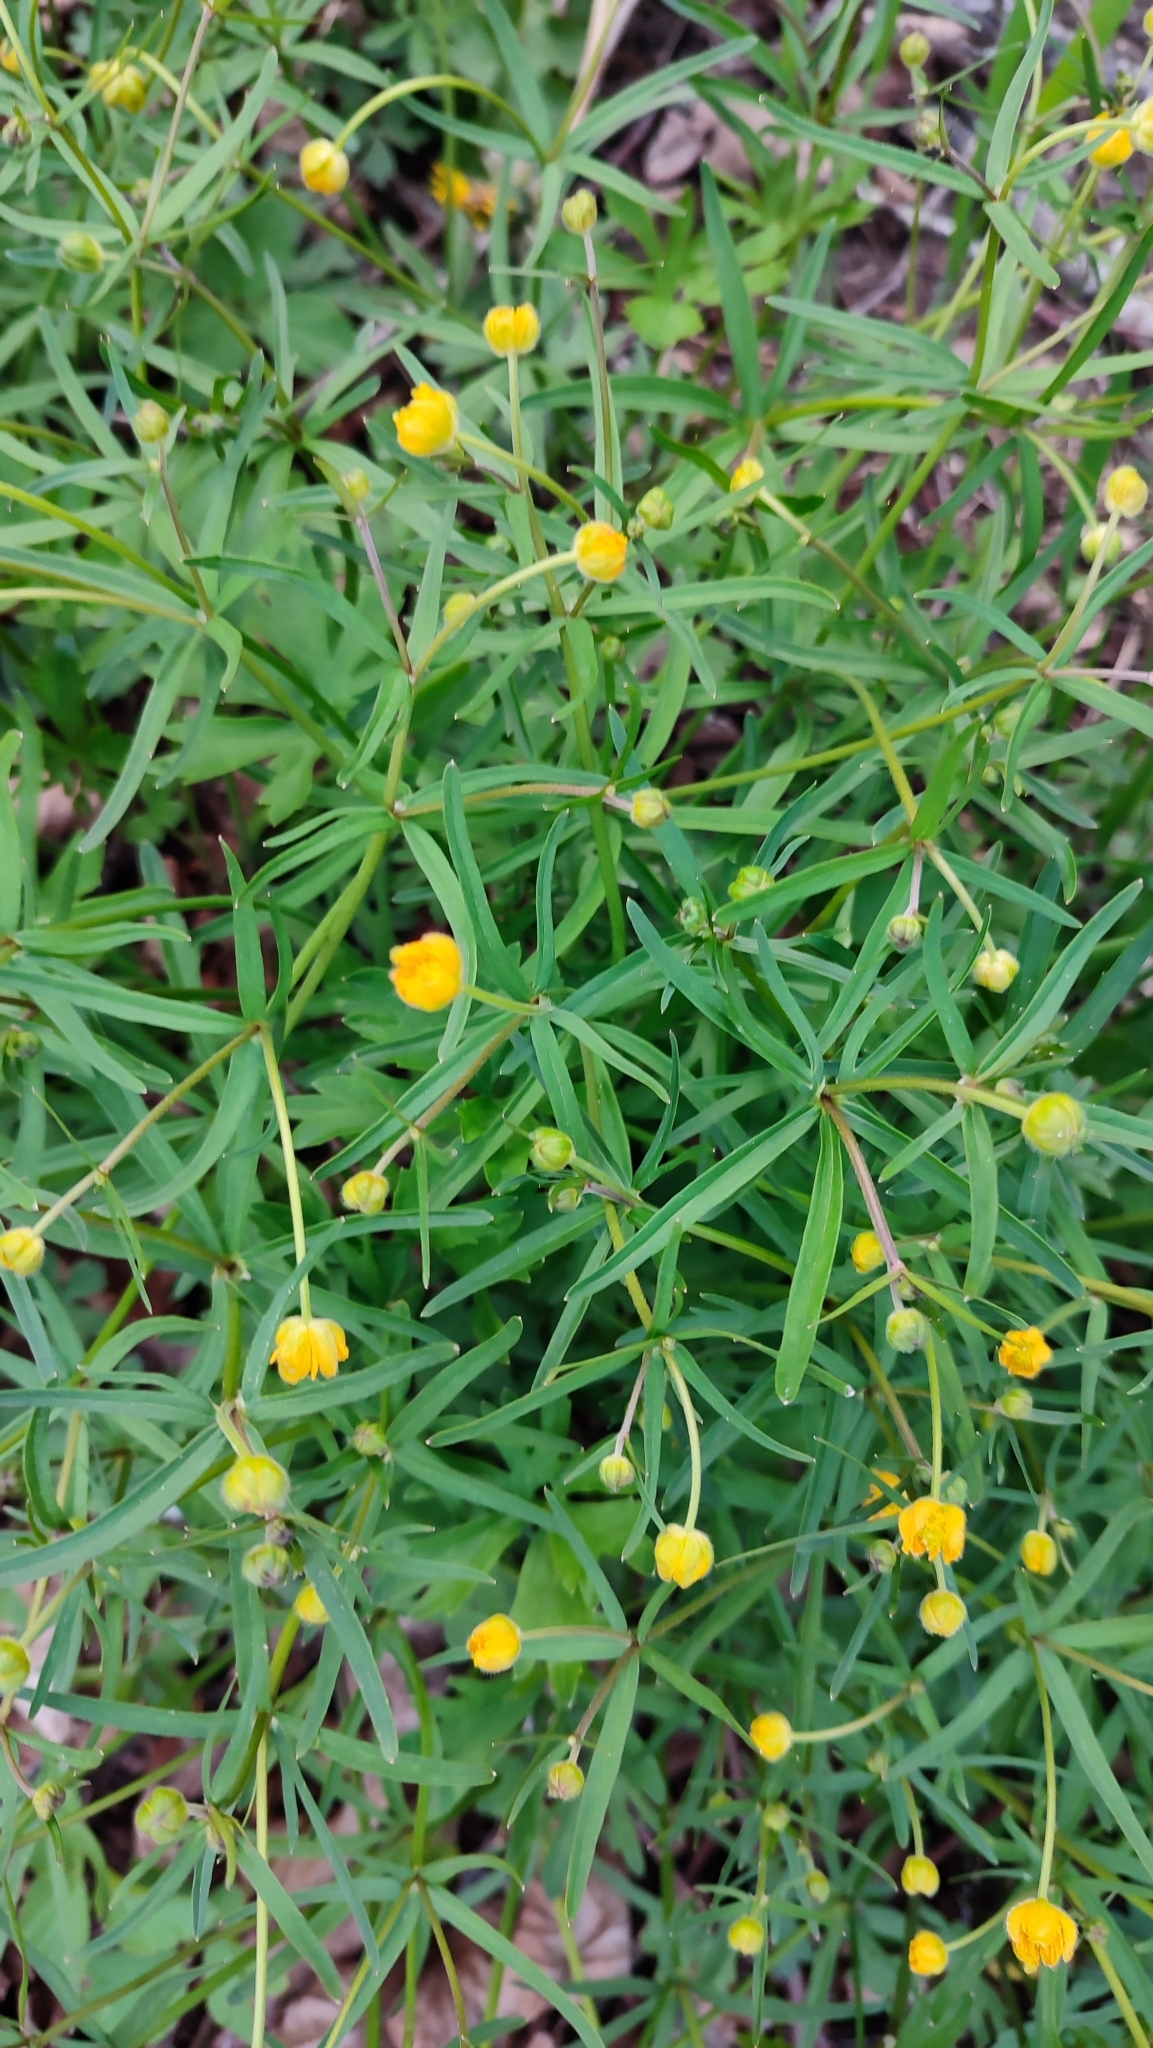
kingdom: Plantae
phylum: Tracheophyta
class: Magnoliopsida
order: Ranunculales
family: Ranunculaceae
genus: Ranunculus
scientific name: Ranunculus auricomus
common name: Goldilocks buttercup
